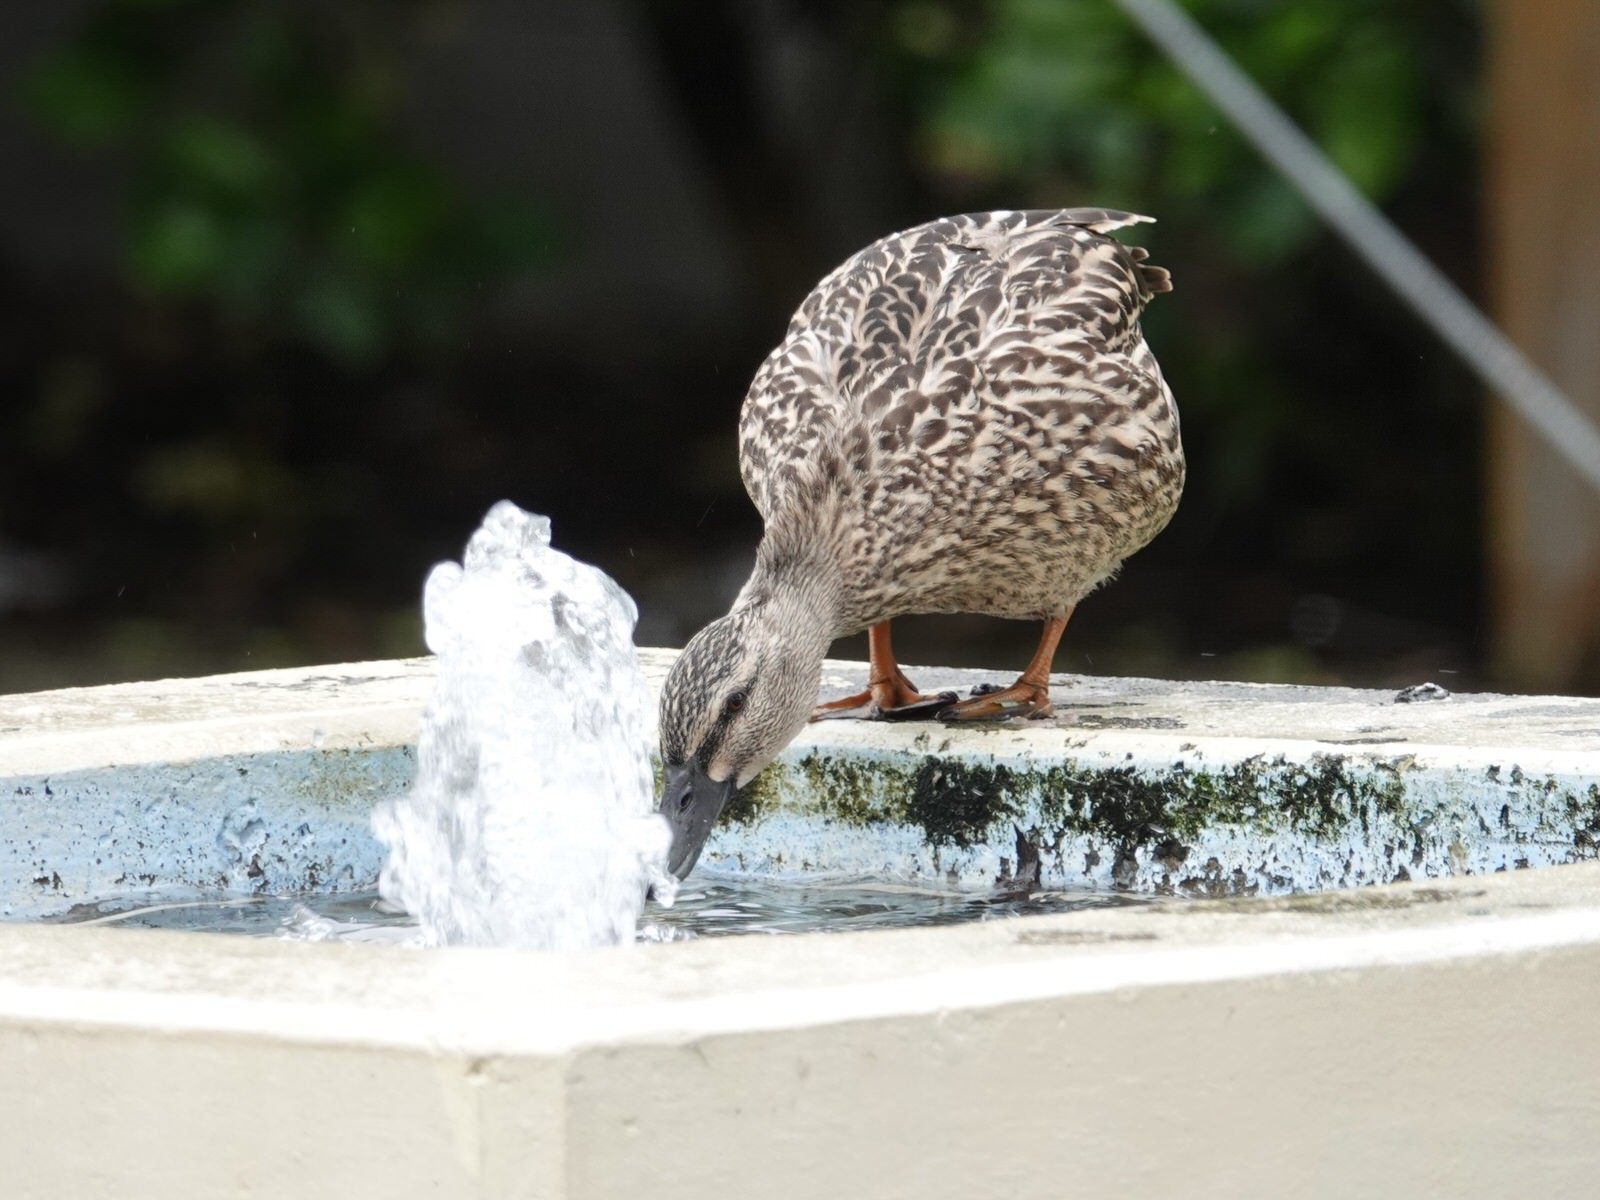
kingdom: Animalia
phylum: Chordata
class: Aves
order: Anseriformes
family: Anatidae
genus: Anas
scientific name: Anas
